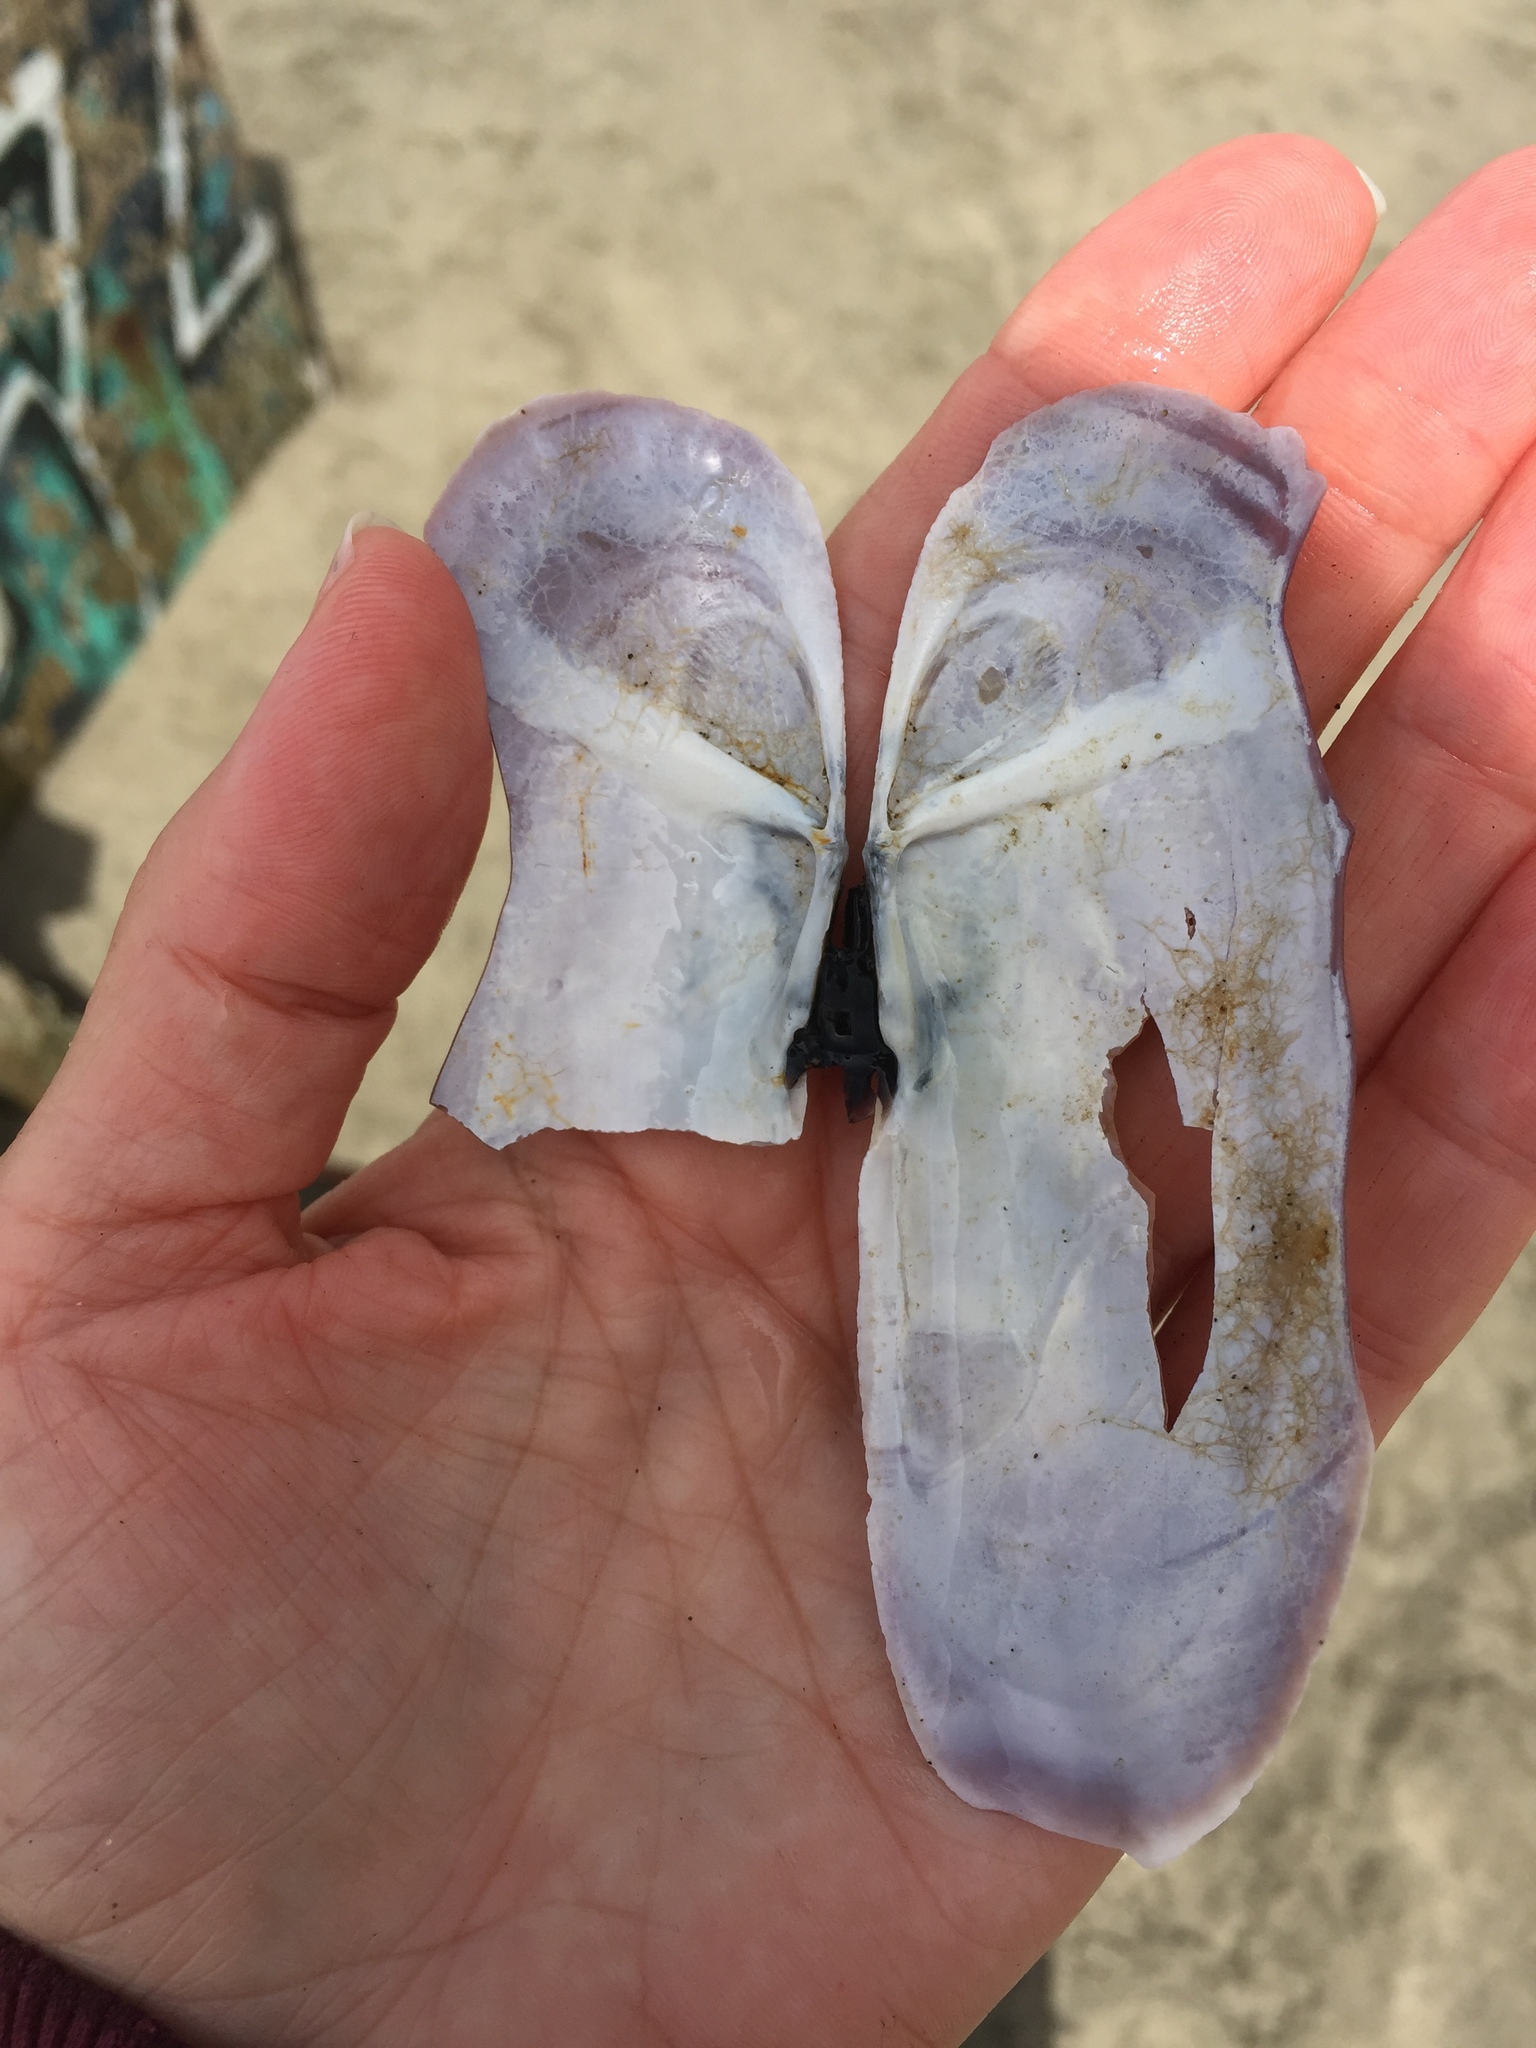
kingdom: Animalia
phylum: Mollusca
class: Bivalvia
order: Adapedonta
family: Pharidae
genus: Siliqua
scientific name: Siliqua patula
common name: Pacific razor clam
